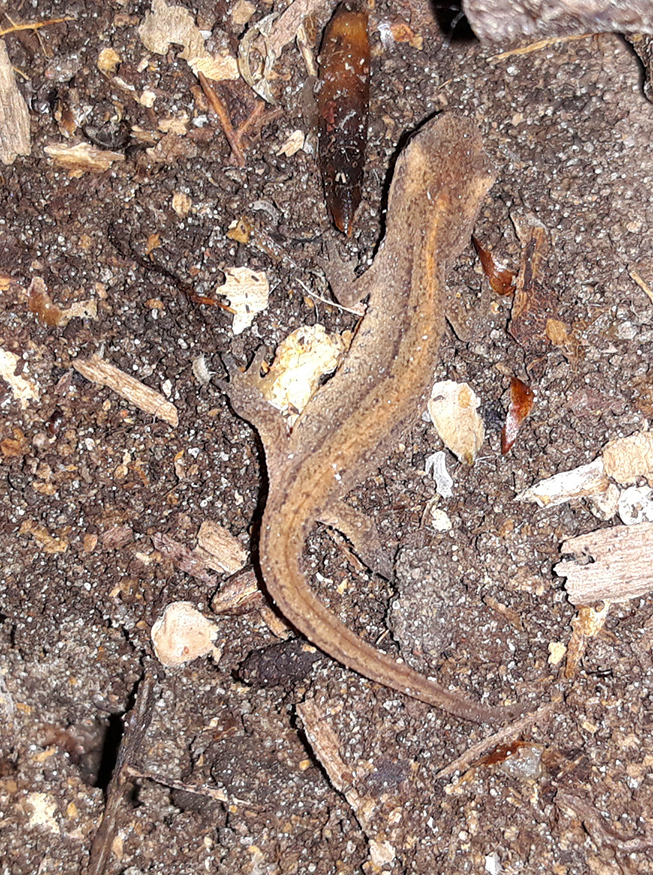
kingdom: Animalia
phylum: Chordata
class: Amphibia
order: Caudata
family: Salamandridae
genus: Lissotriton
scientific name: Lissotriton vulgaris
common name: Smooth newt
